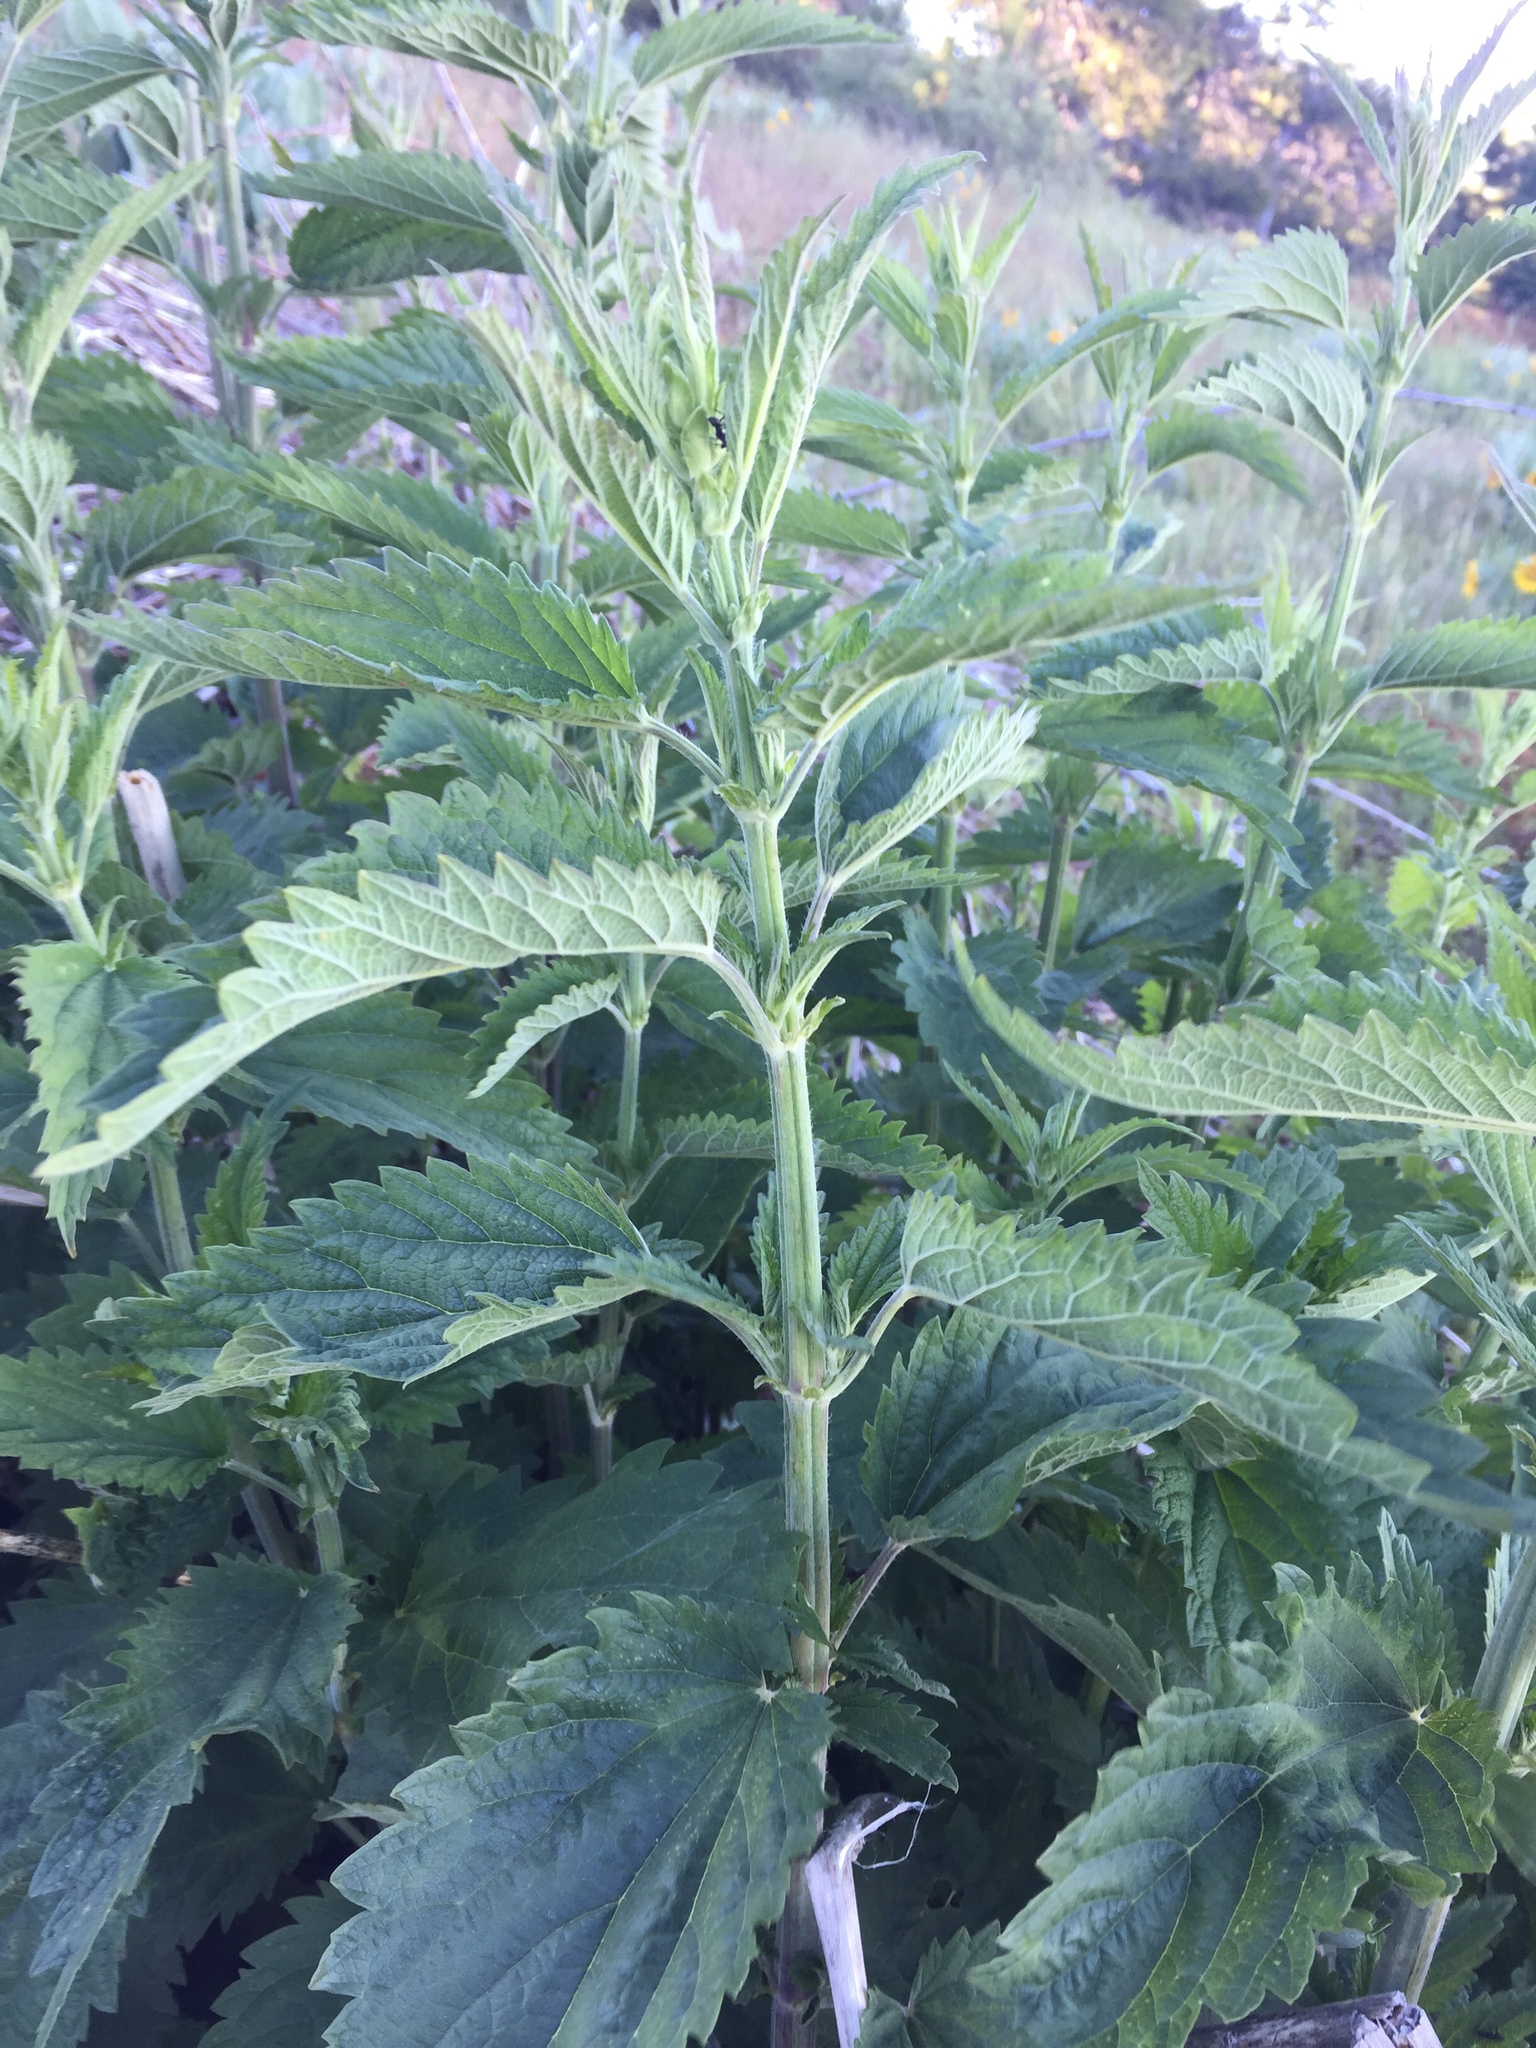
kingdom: Plantae
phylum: Tracheophyta
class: Magnoliopsida
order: Rosales
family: Urticaceae
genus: Urtica
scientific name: Urtica dioica
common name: Common nettle
